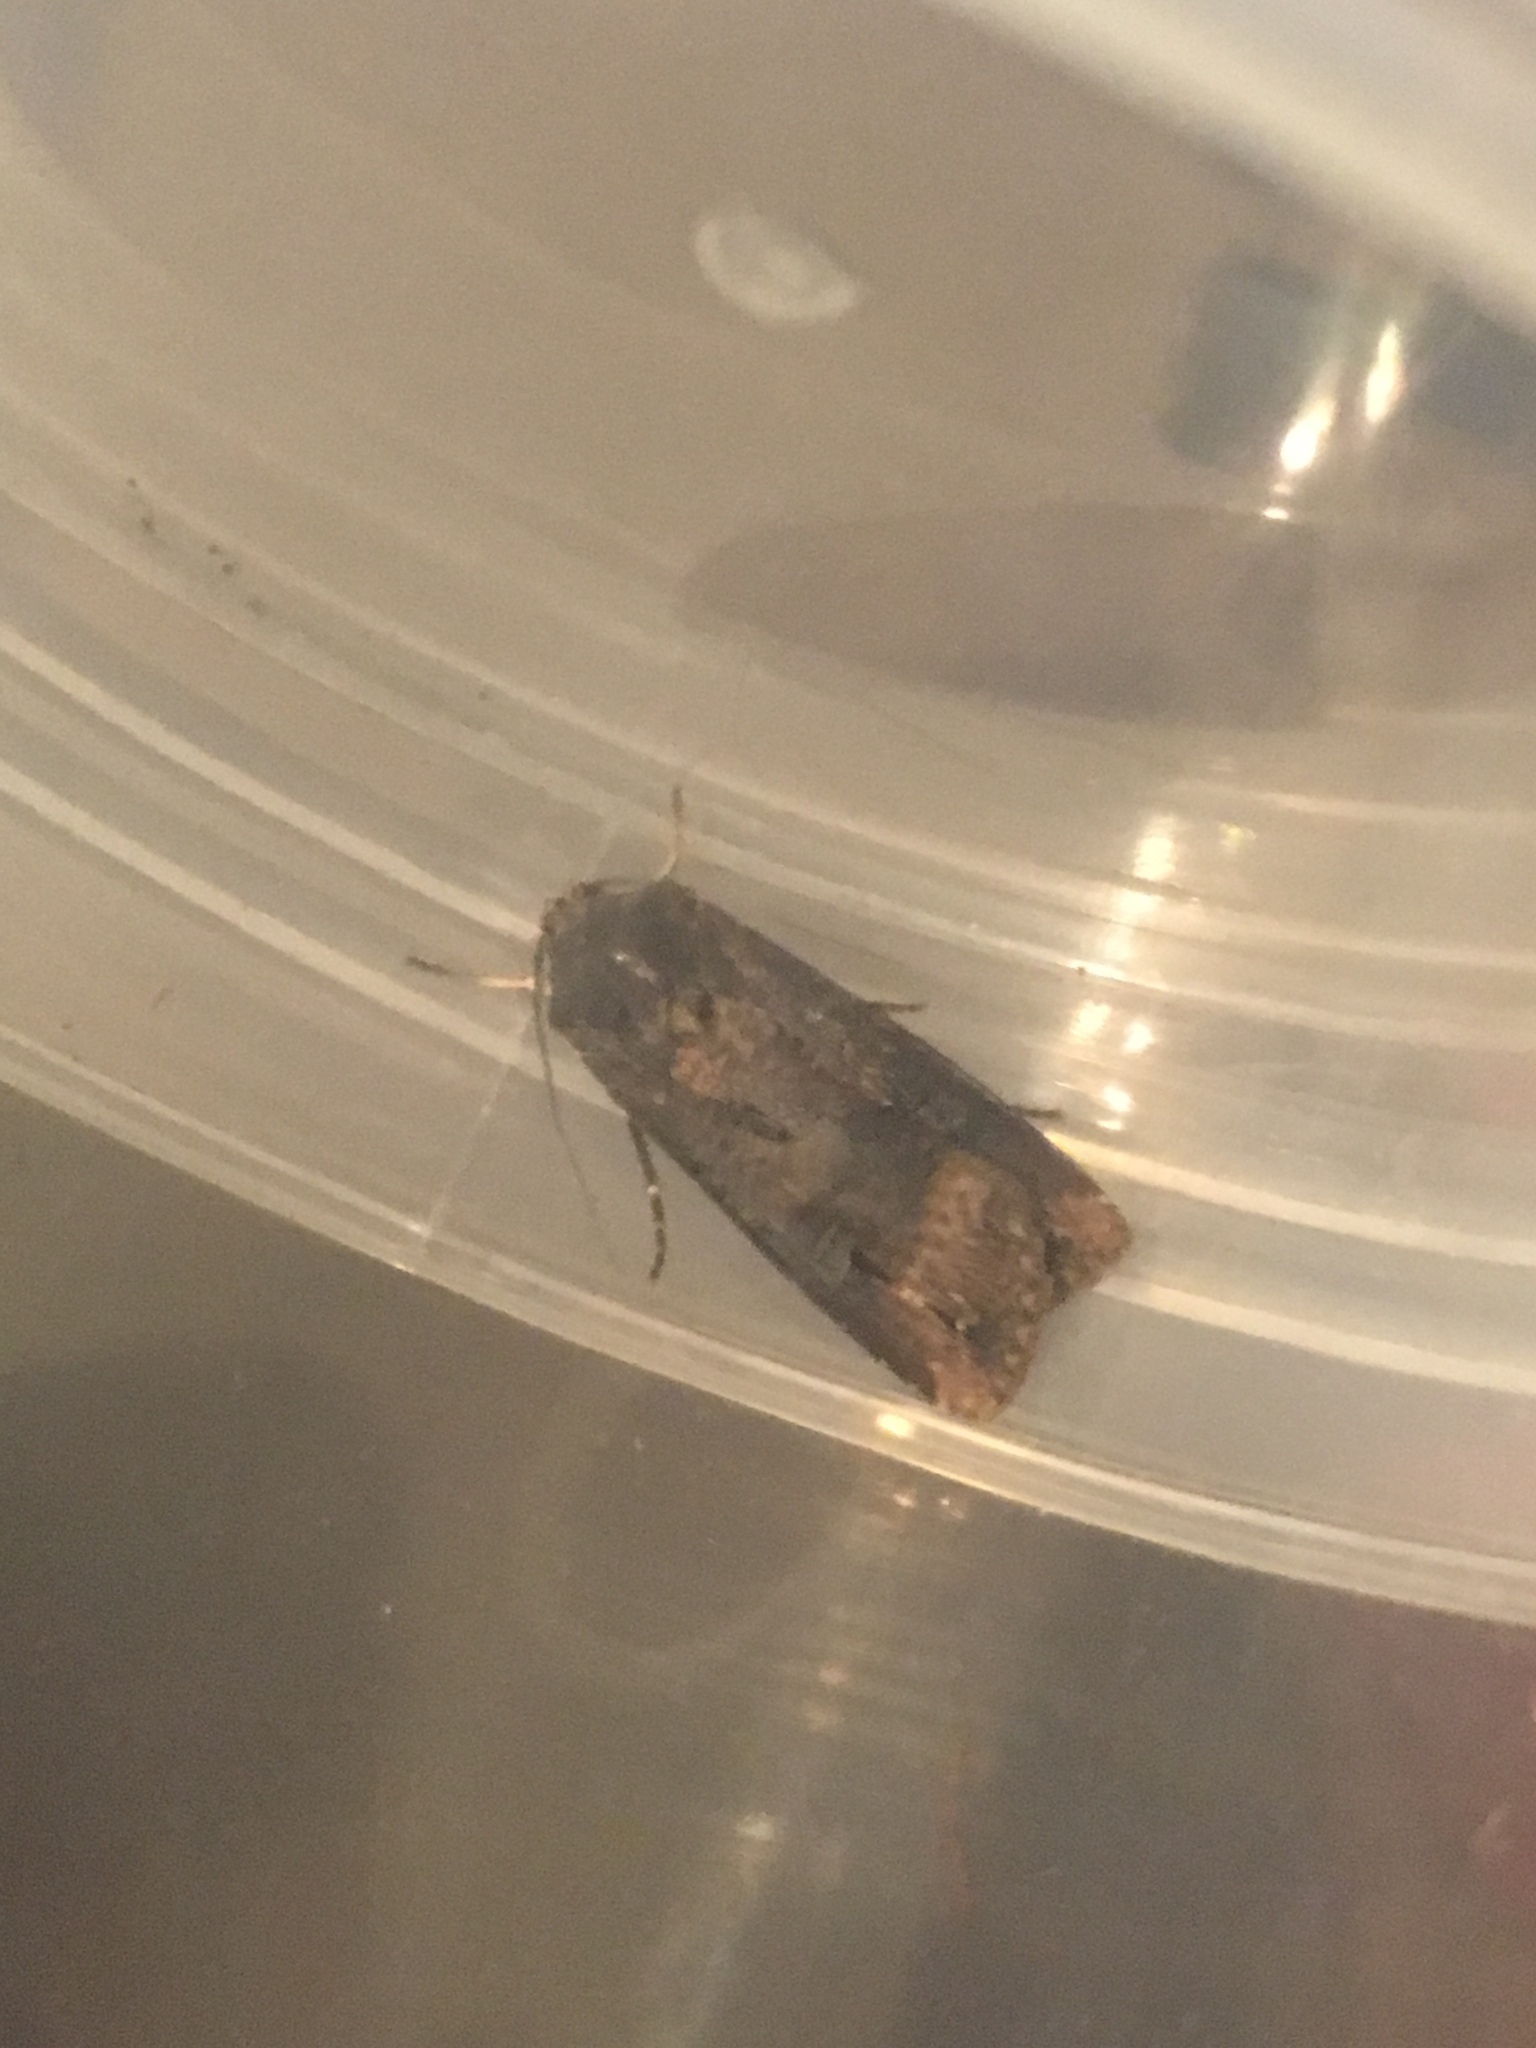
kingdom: Animalia
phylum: Arthropoda
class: Insecta
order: Lepidoptera
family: Noctuidae
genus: Agrotis
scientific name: Agrotis ipsilon
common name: Dark sword-grass
